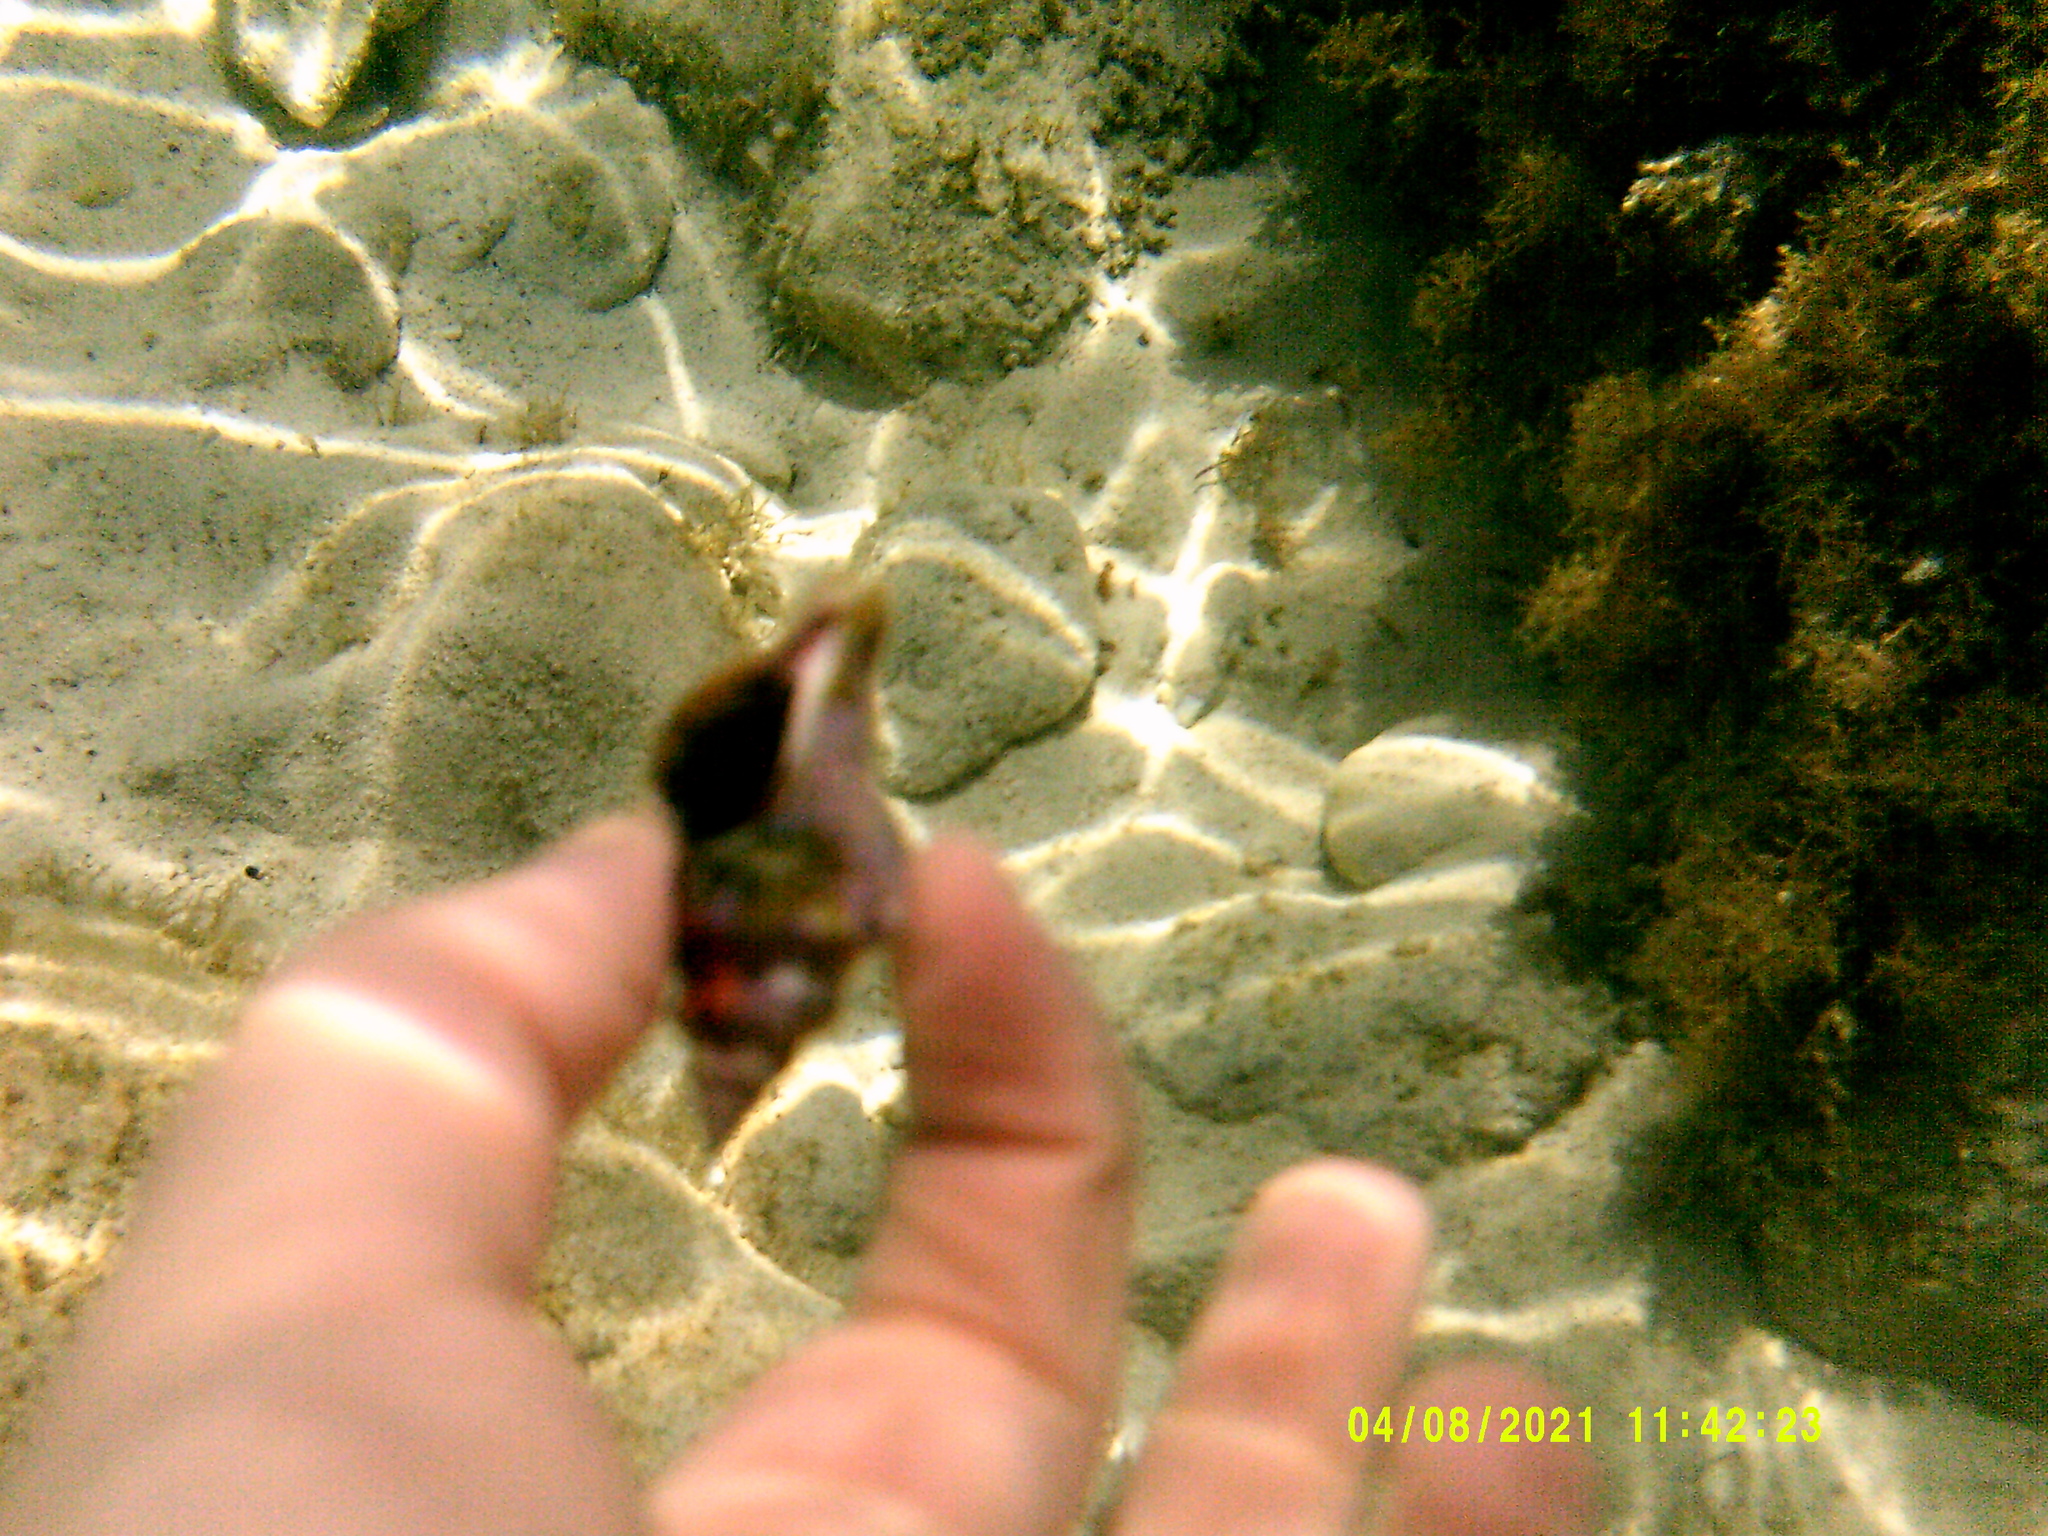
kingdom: Animalia
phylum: Mollusca
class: Gastropoda
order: Neogastropoda
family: Fasciolariidae
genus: Tarantinaea
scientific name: Tarantinaea lignaria
